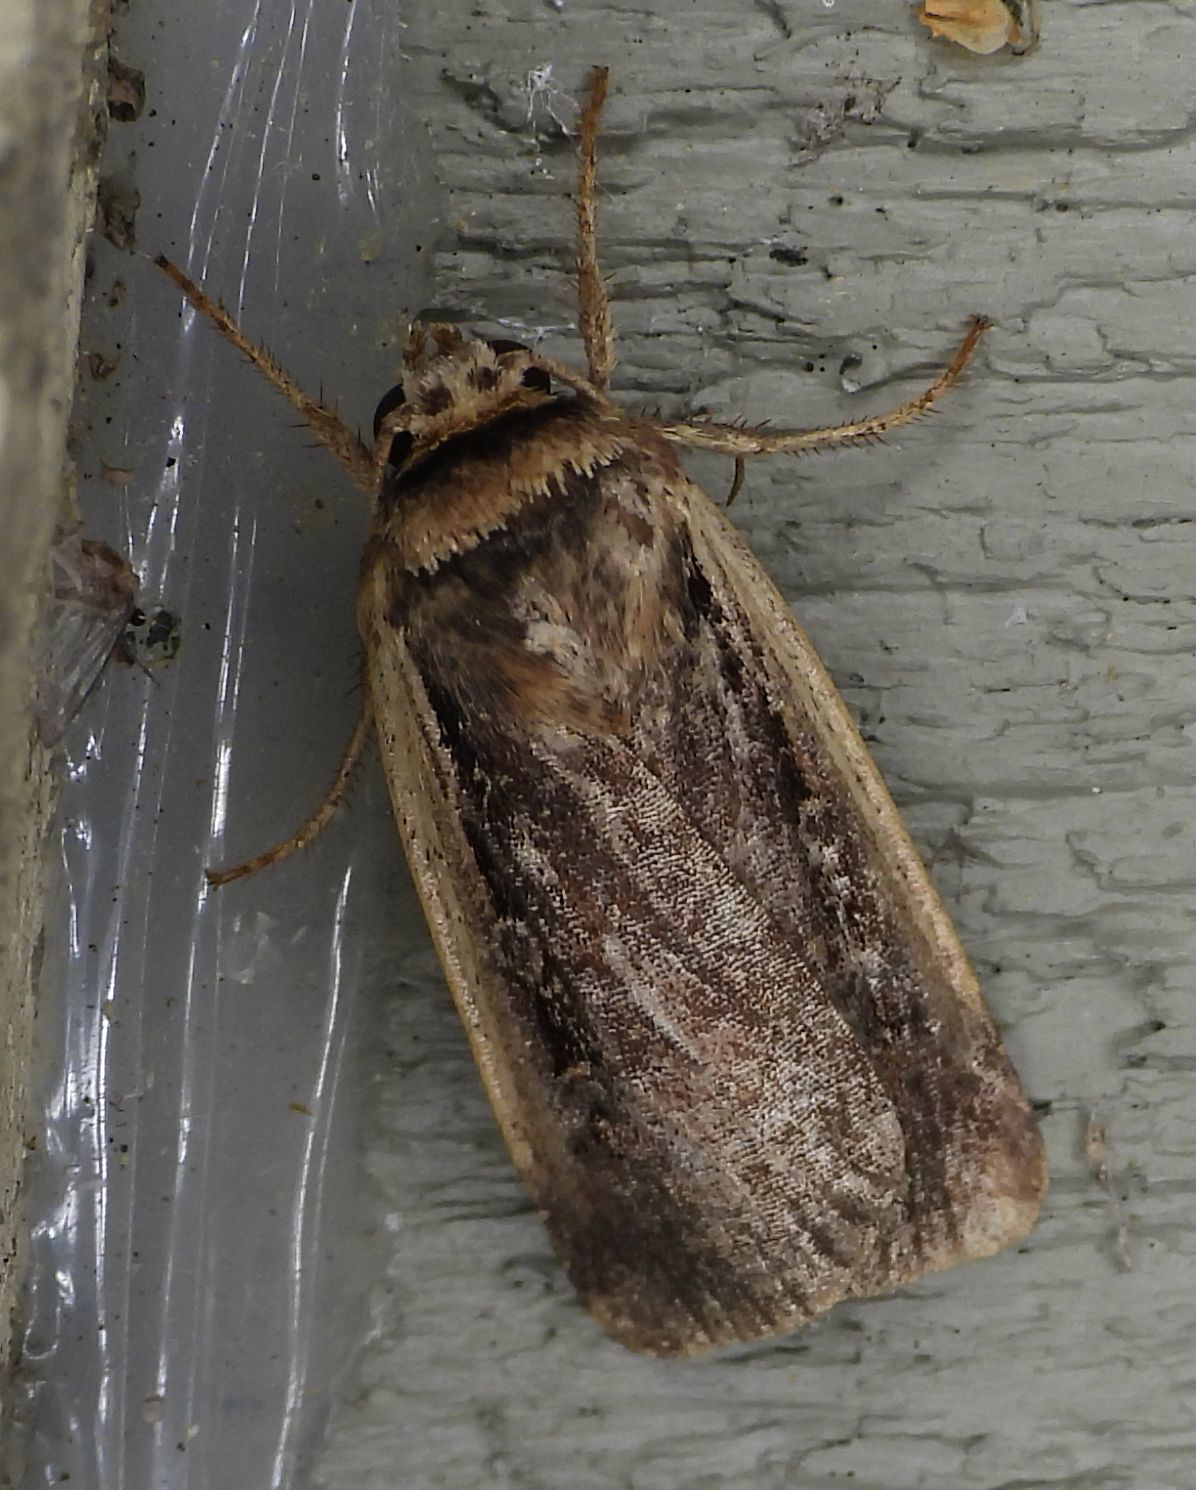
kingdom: Animalia
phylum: Arthropoda
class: Insecta
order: Lepidoptera
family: Noctuidae
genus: Ochropleura
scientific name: Ochropleura implecta
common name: Flame-shouldered dart
